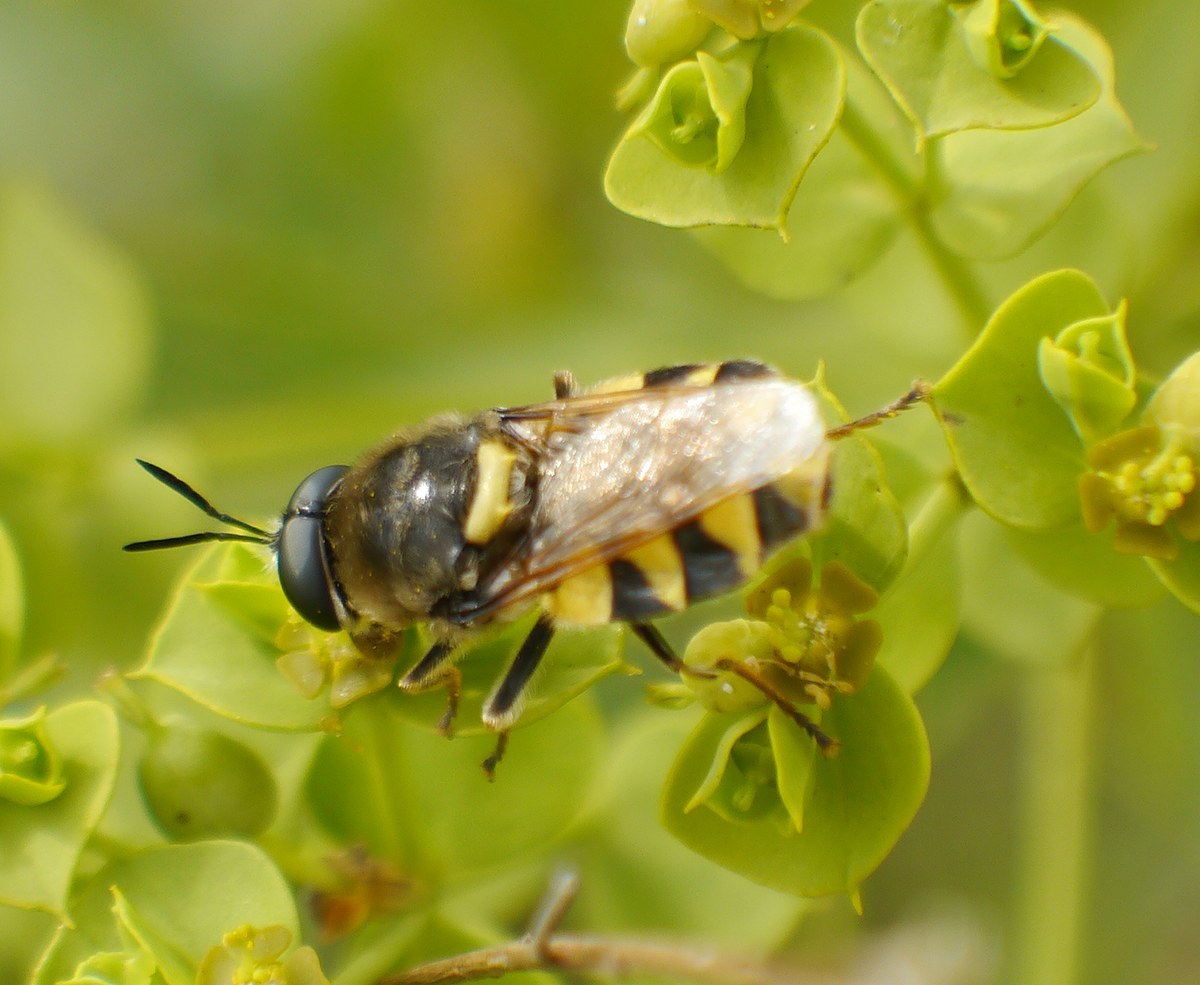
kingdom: Animalia
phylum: Arthropoda
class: Insecta
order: Diptera
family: Stratiomyidae
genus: Stratiomys
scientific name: Stratiomys chamaeleon
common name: Clubbed general
